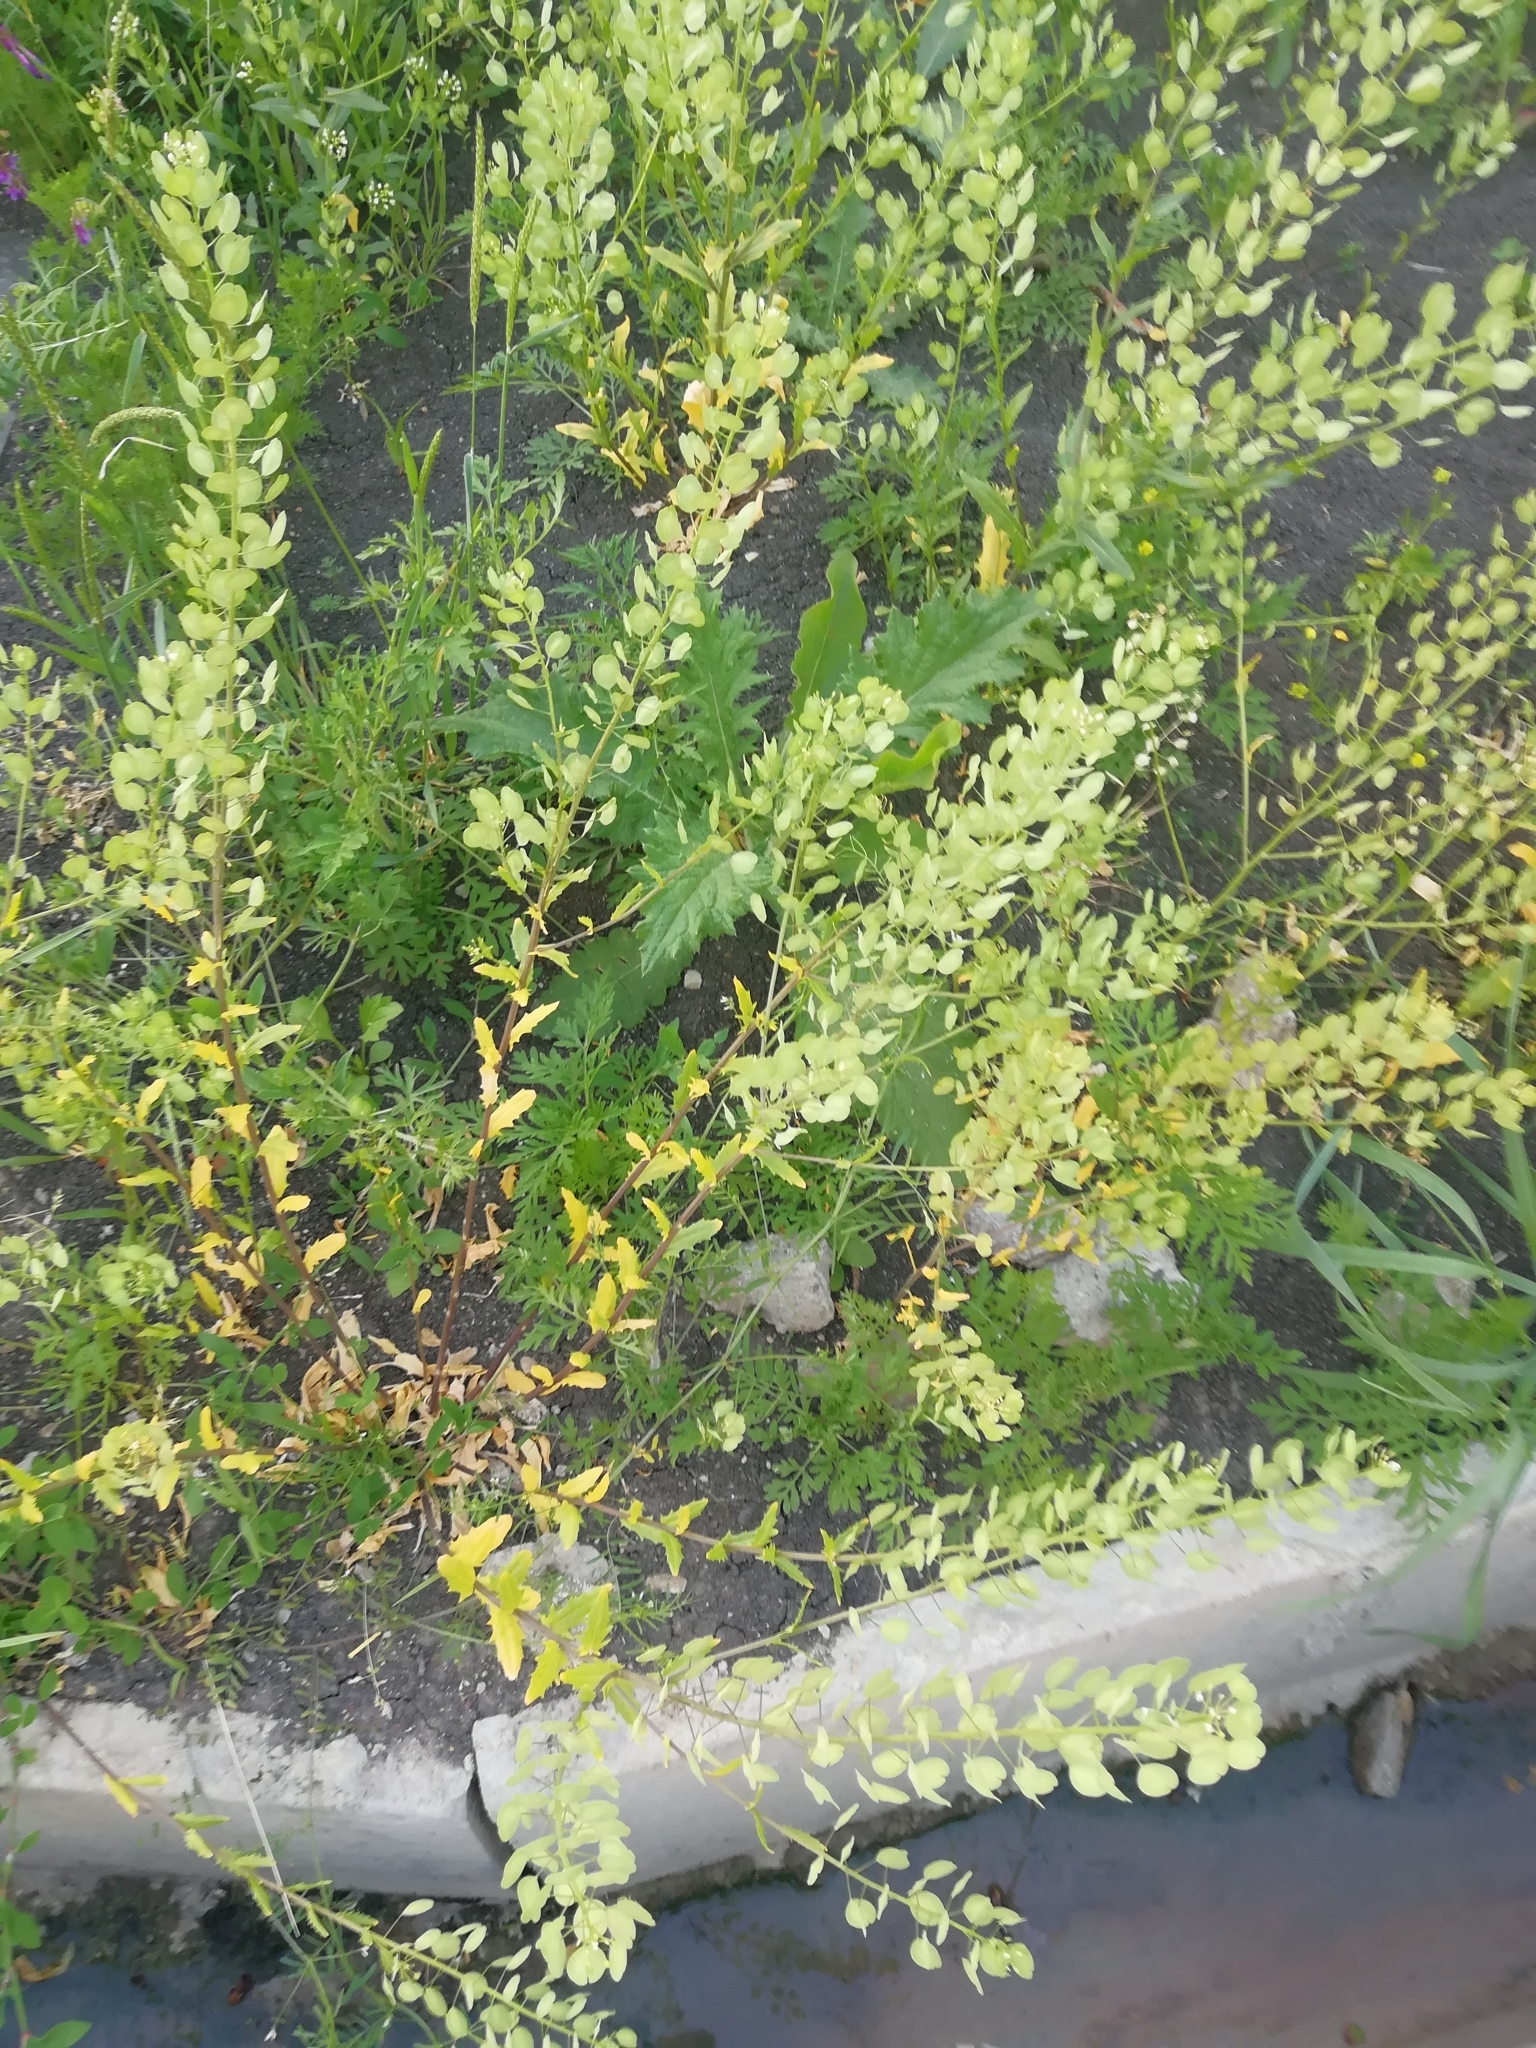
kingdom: Plantae
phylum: Tracheophyta
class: Magnoliopsida
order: Brassicales
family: Brassicaceae
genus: Thlaspi
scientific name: Thlaspi arvense
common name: Field pennycress
